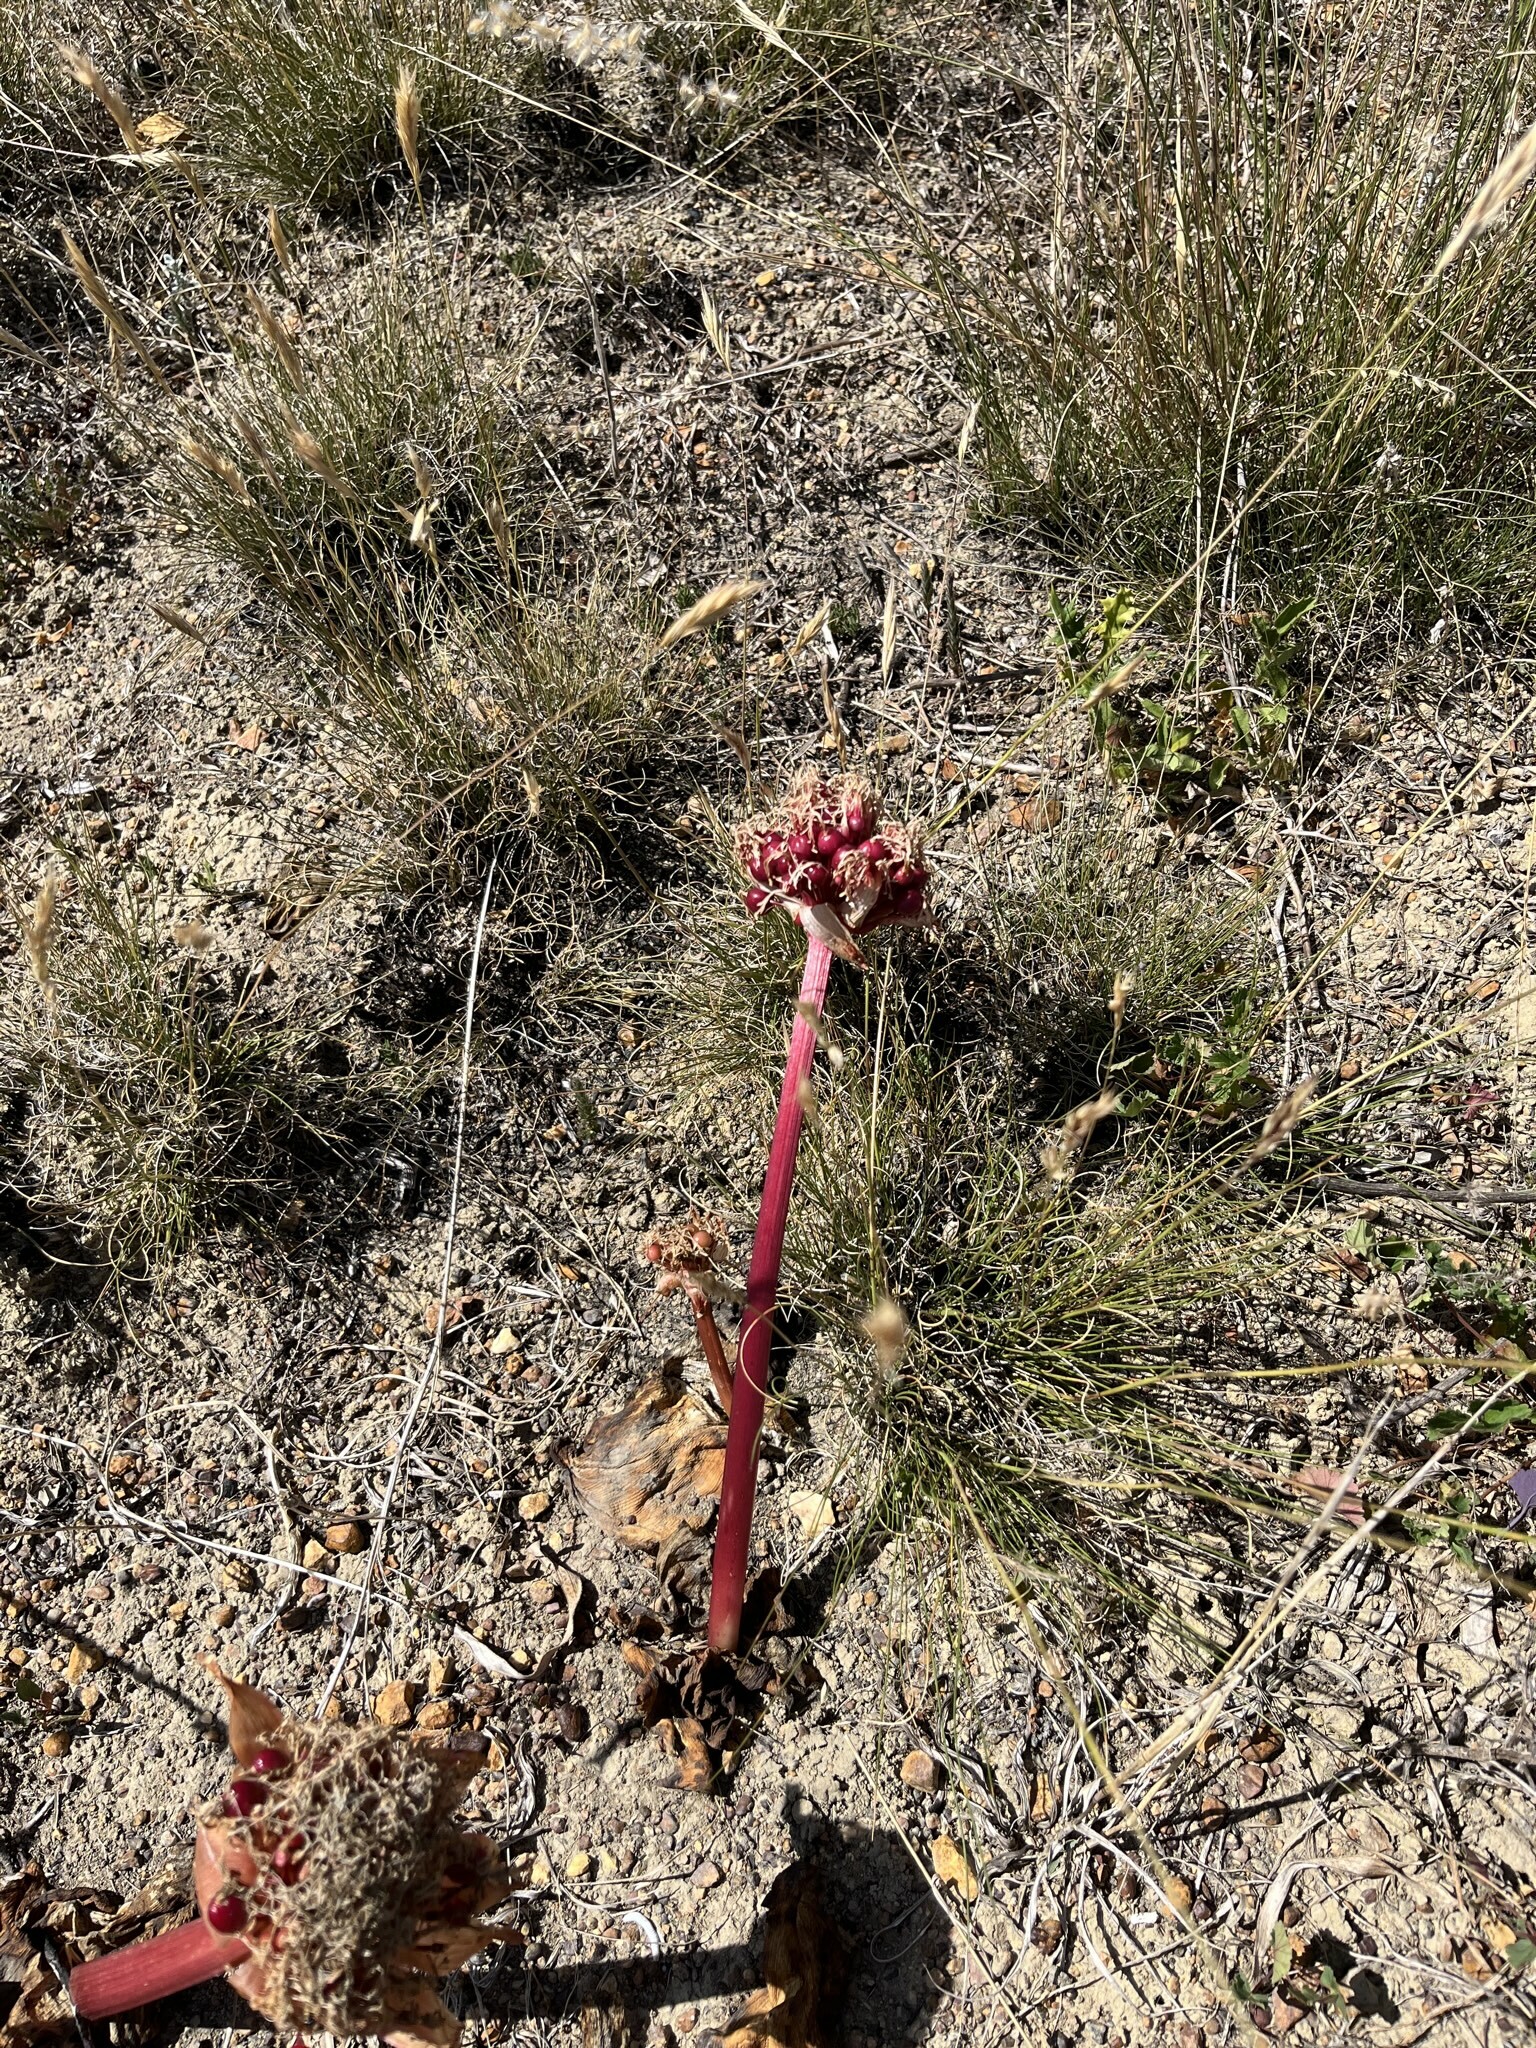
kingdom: Plantae
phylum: Tracheophyta
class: Liliopsida
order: Asparagales
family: Amaryllidaceae
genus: Haemanthus
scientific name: Haemanthus sanguineus
